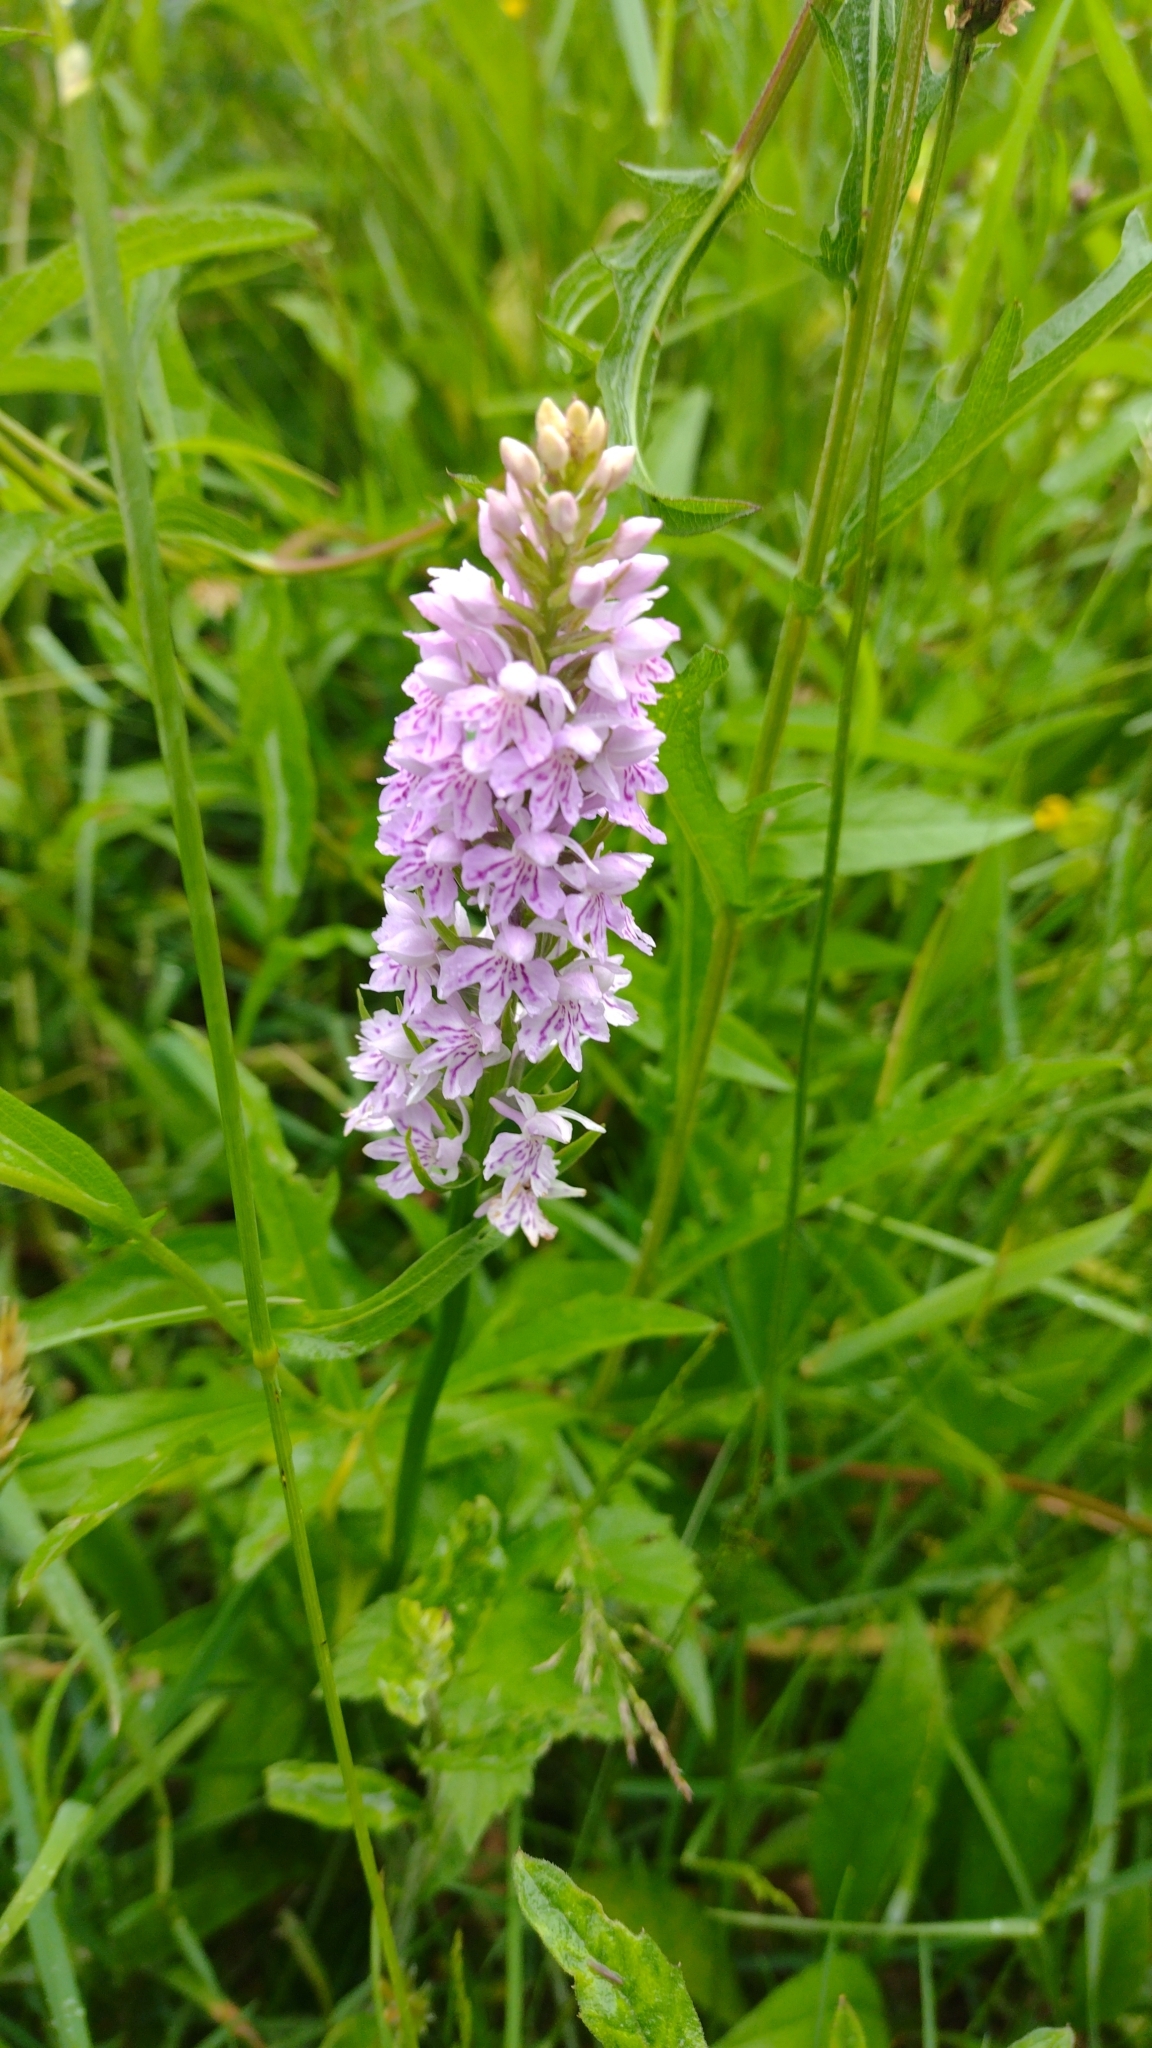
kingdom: Plantae
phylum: Tracheophyta
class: Liliopsida
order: Asparagales
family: Orchidaceae
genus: Dactylorhiza
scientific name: Dactylorhiza maculata
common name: Heath spotted-orchid
